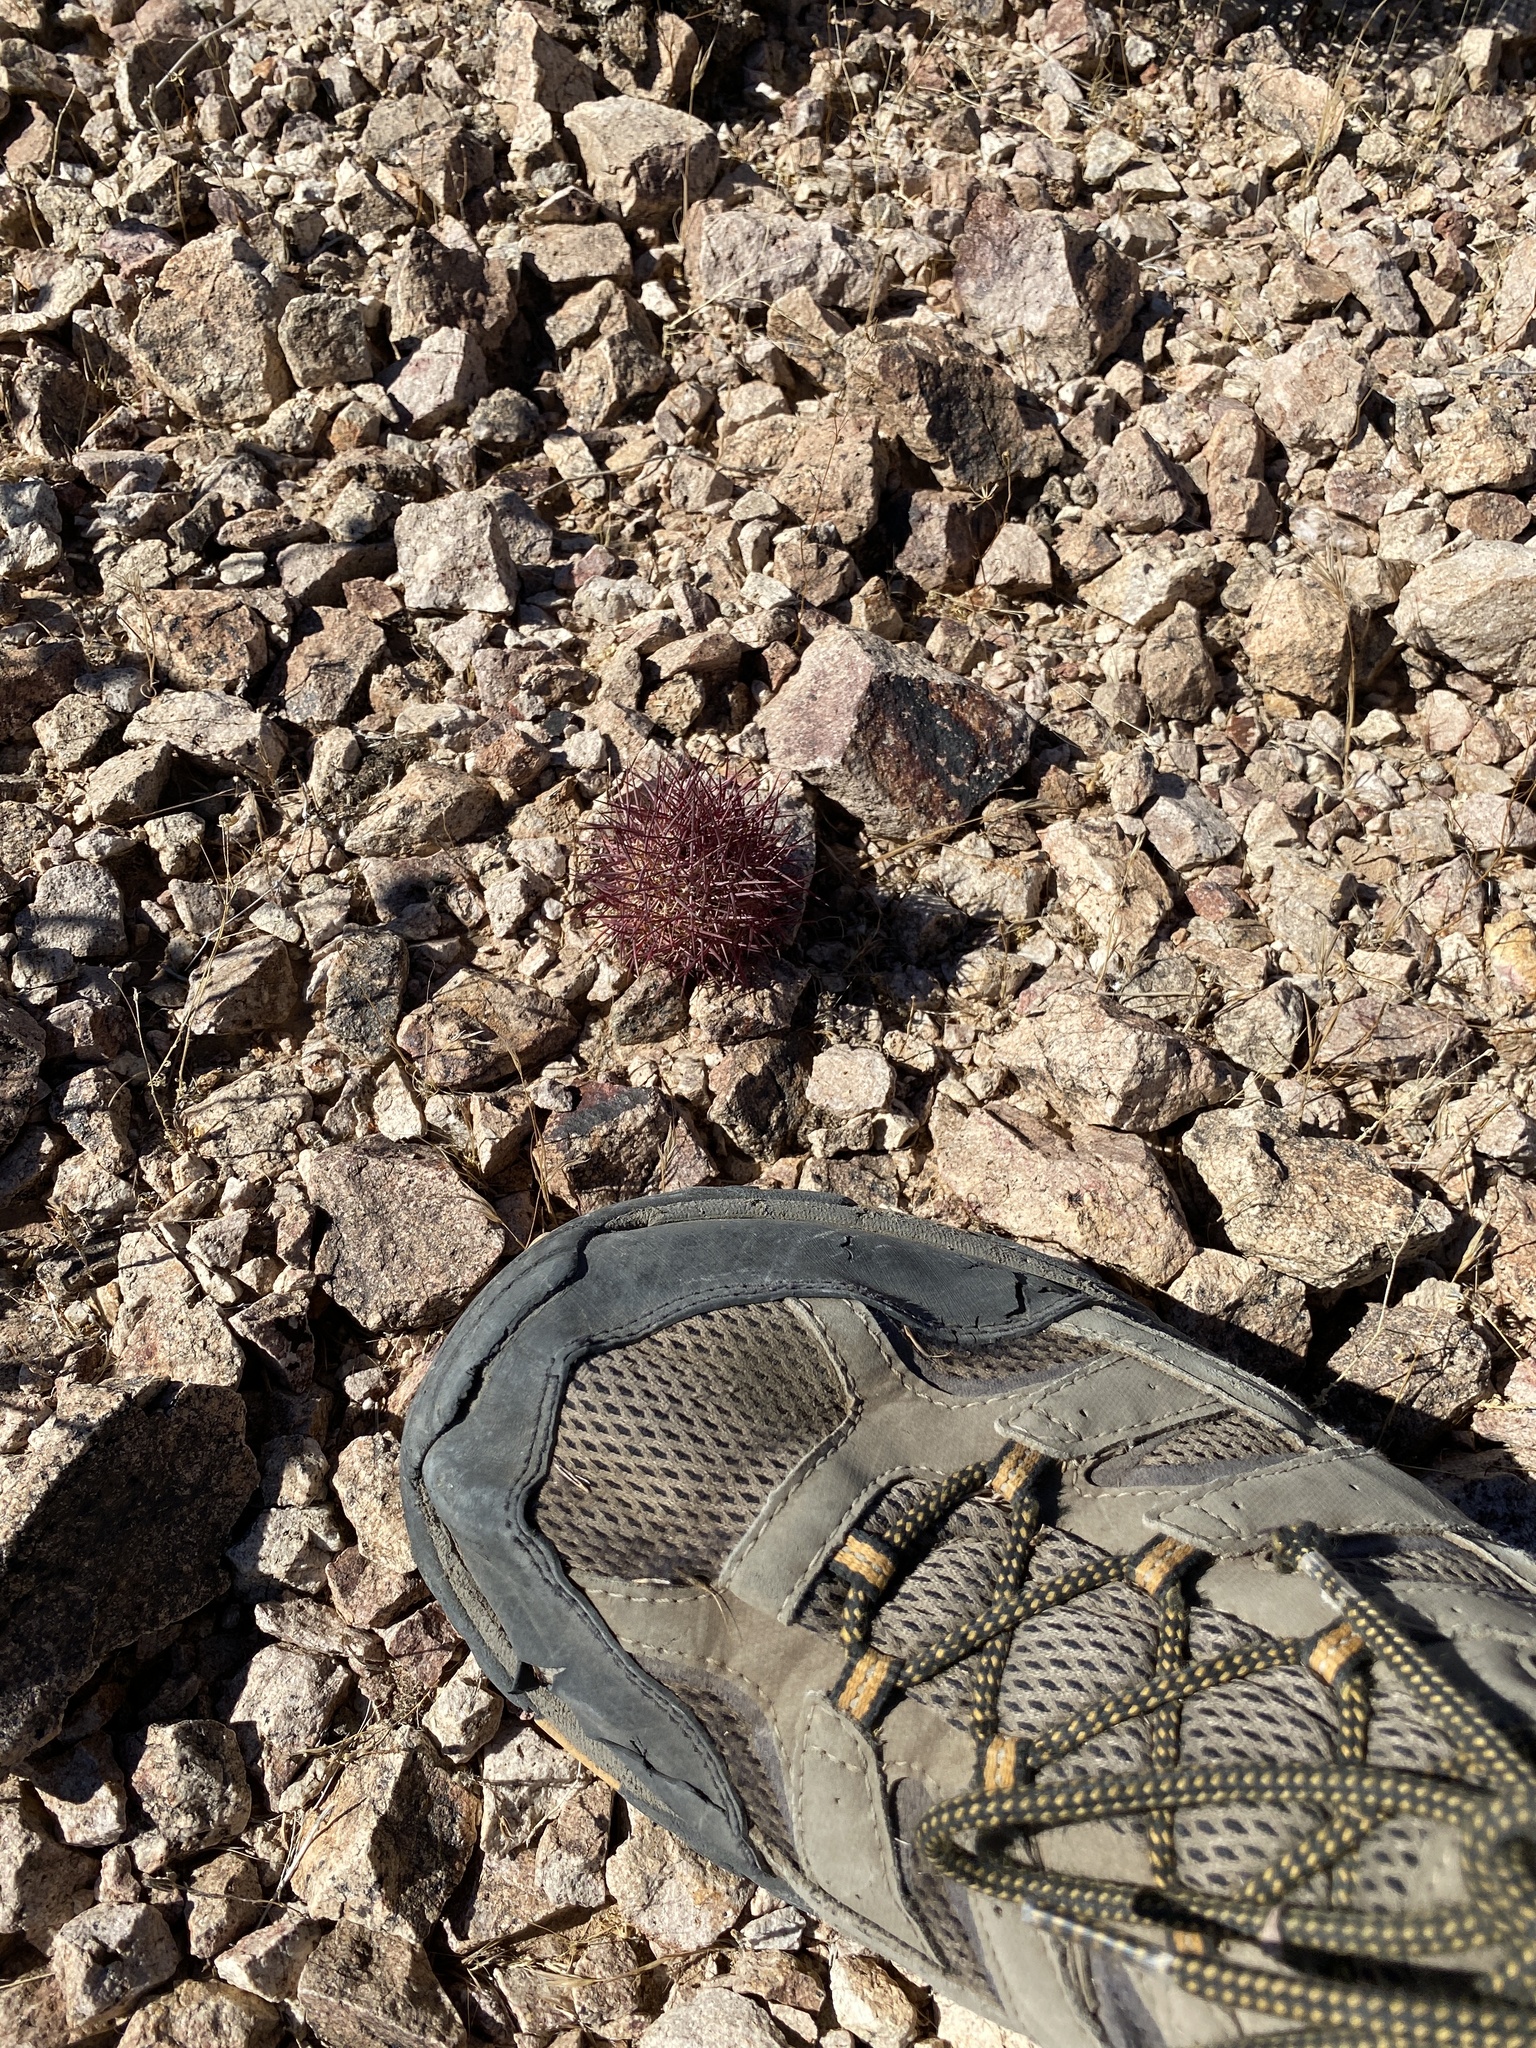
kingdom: Plantae
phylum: Tracheophyta
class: Magnoliopsida
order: Caryophyllales
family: Cactaceae
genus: Sclerocactus
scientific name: Sclerocactus johnsonii
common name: Eight-spine fishhook cactus
